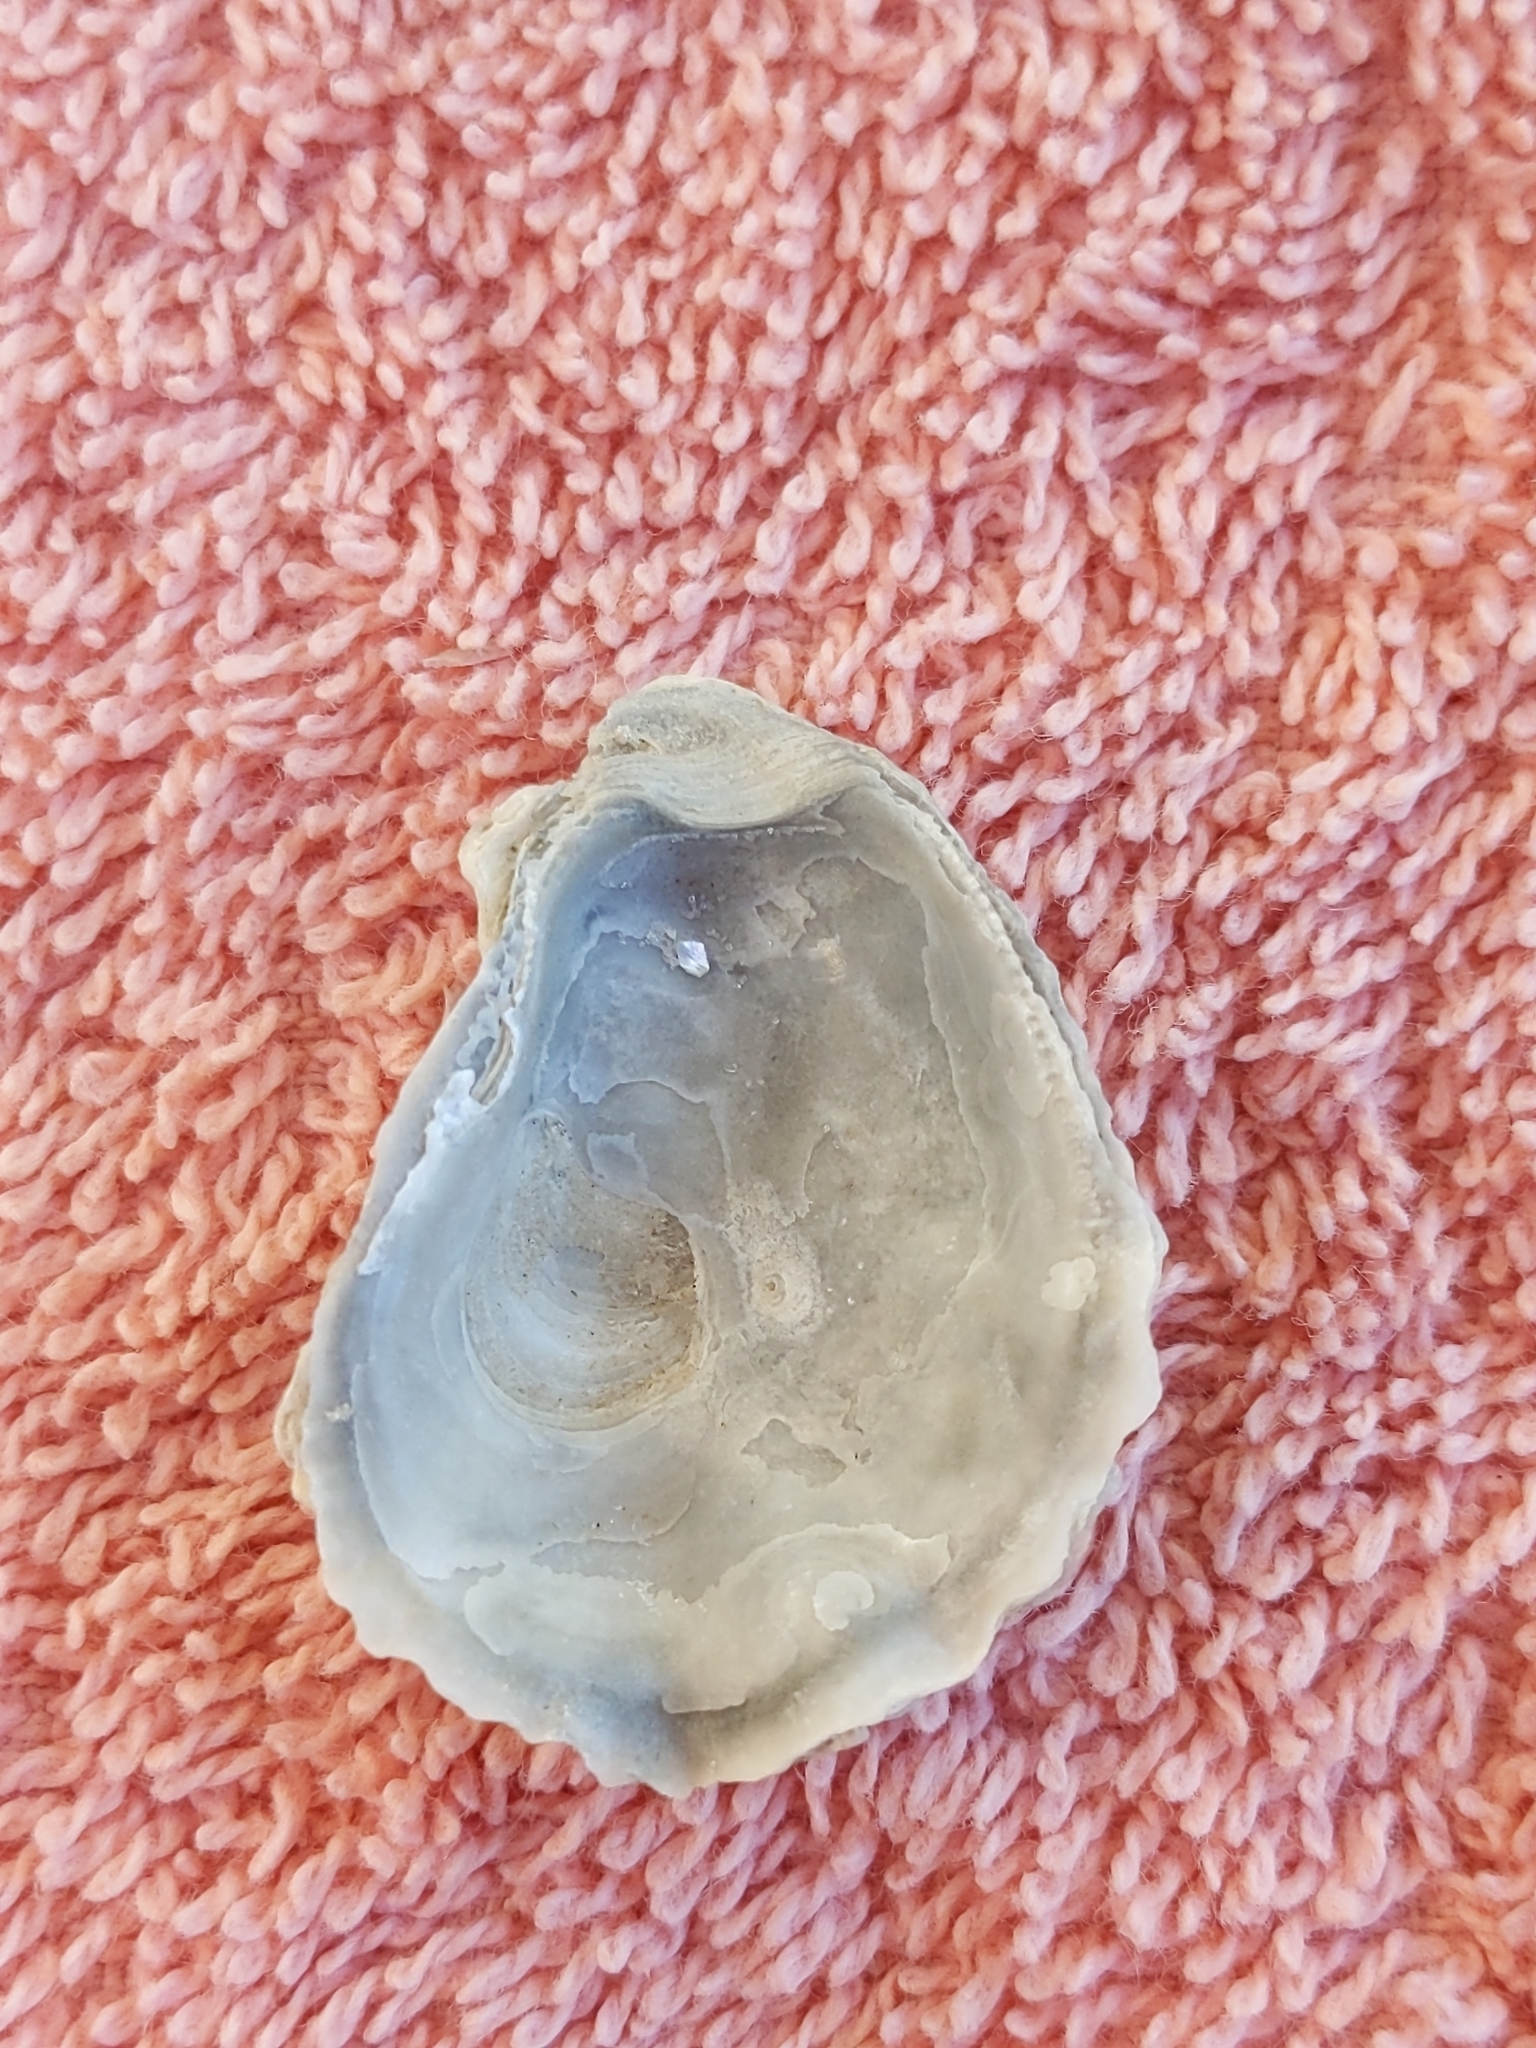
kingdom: Animalia
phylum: Mollusca
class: Bivalvia
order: Ostreida
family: Ostreidae
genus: Crassostrea
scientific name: Crassostrea virginica
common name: American oyster
